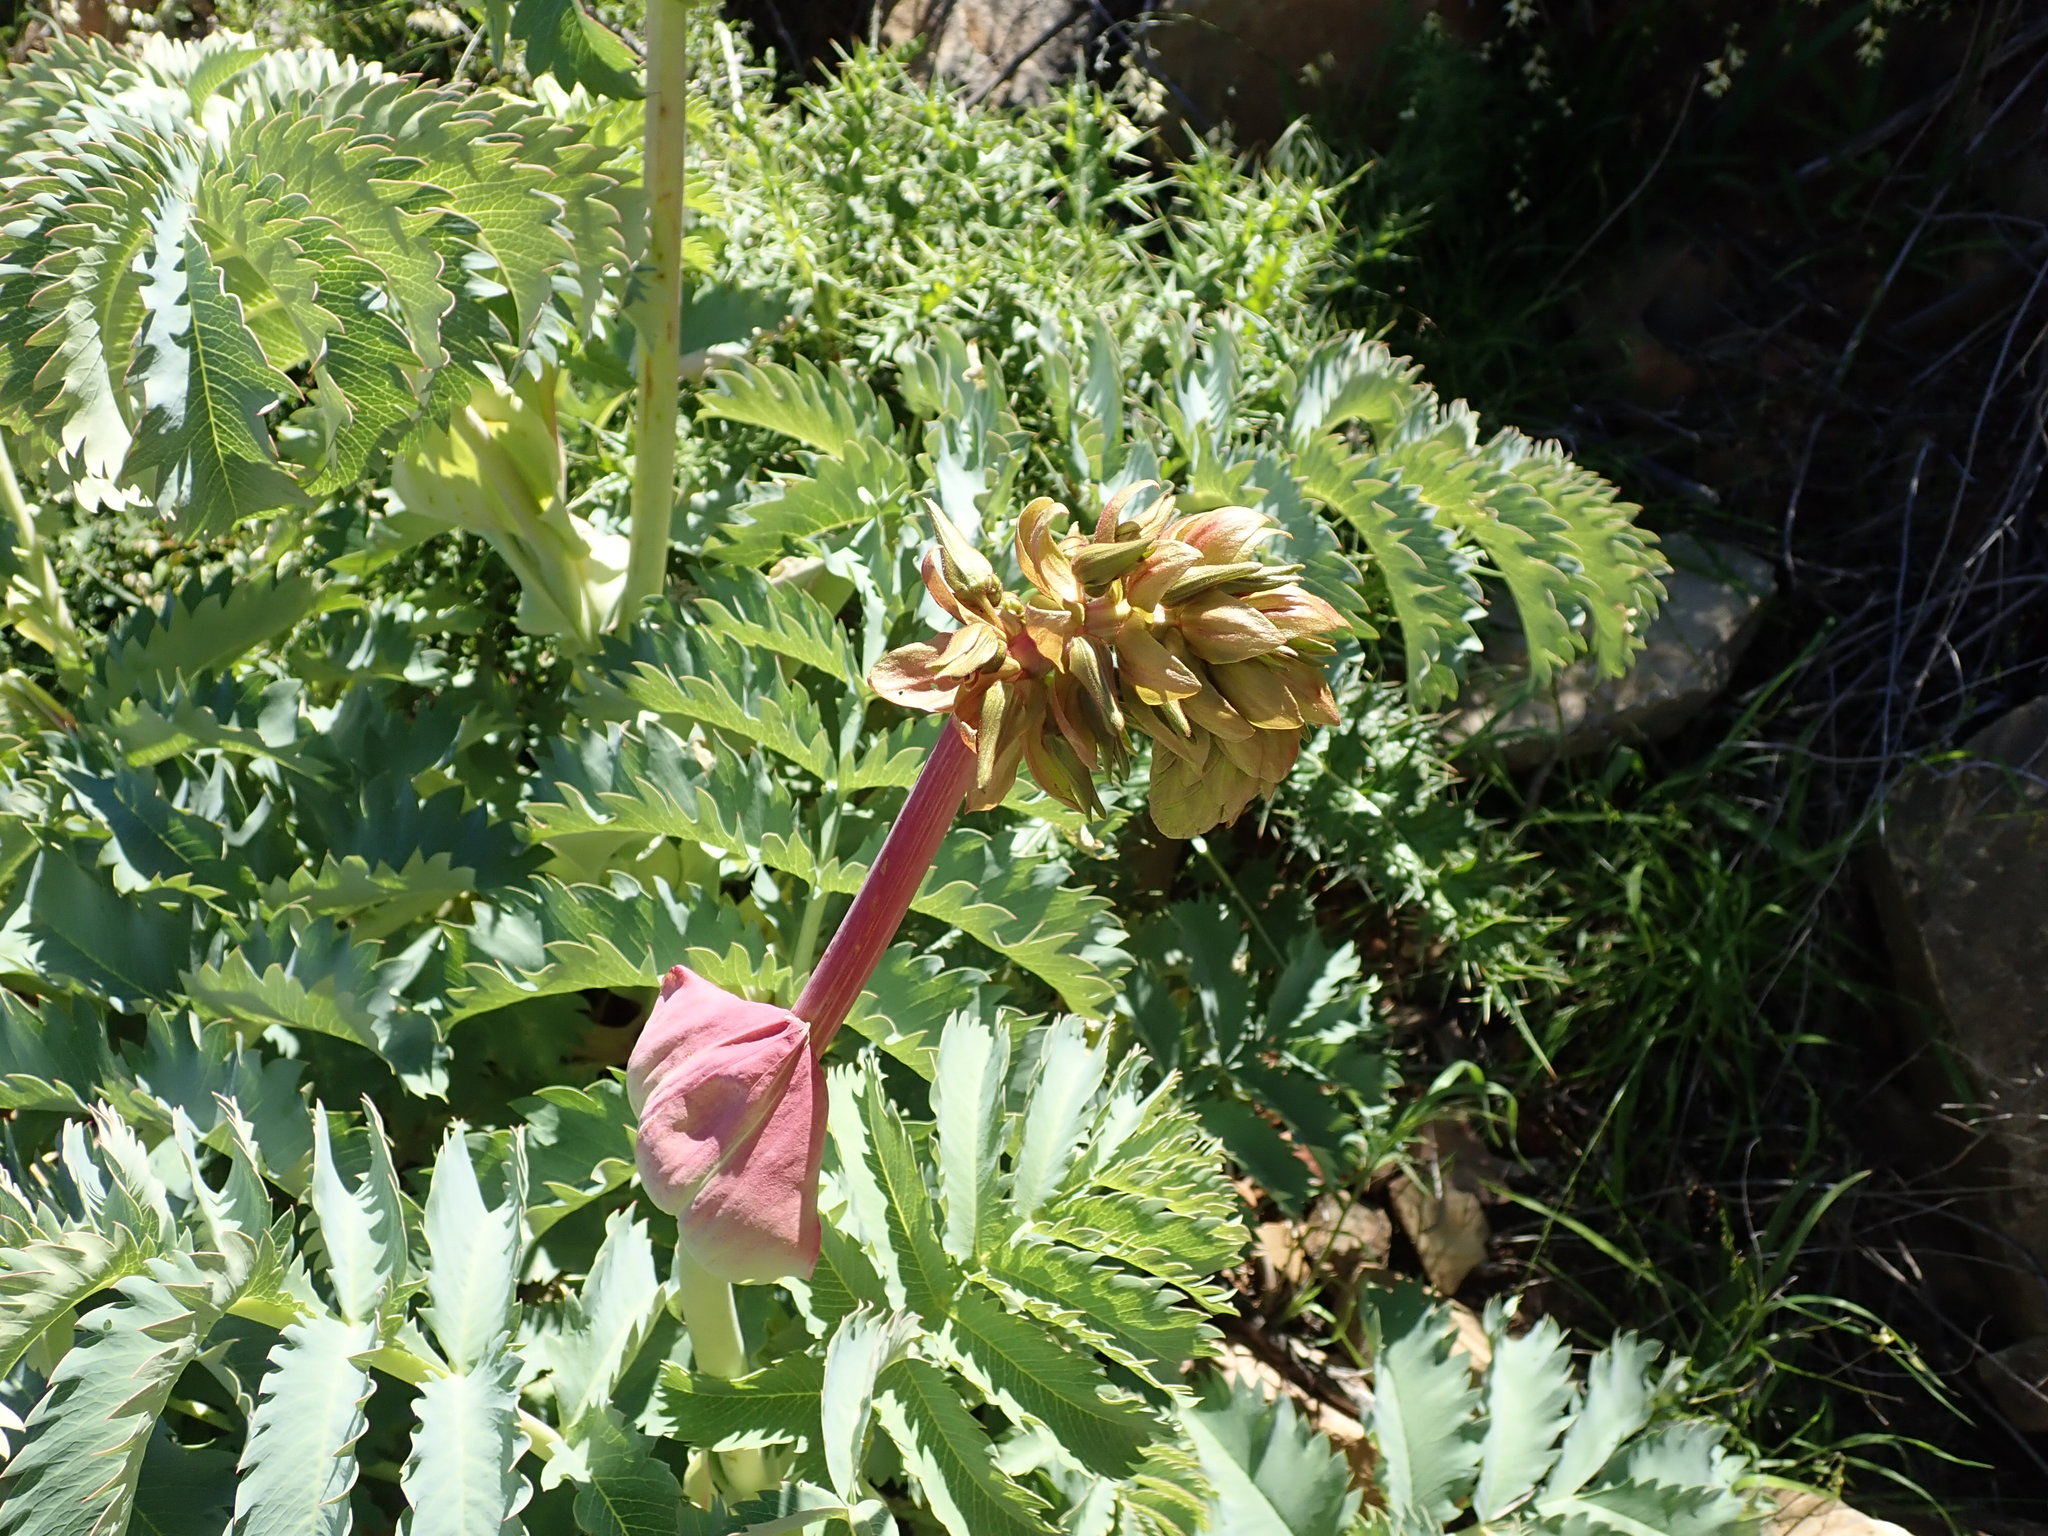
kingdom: Plantae
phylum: Tracheophyta
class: Magnoliopsida
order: Geraniales
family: Melianthaceae
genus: Melianthus
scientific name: Melianthus major
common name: Honey-flower
